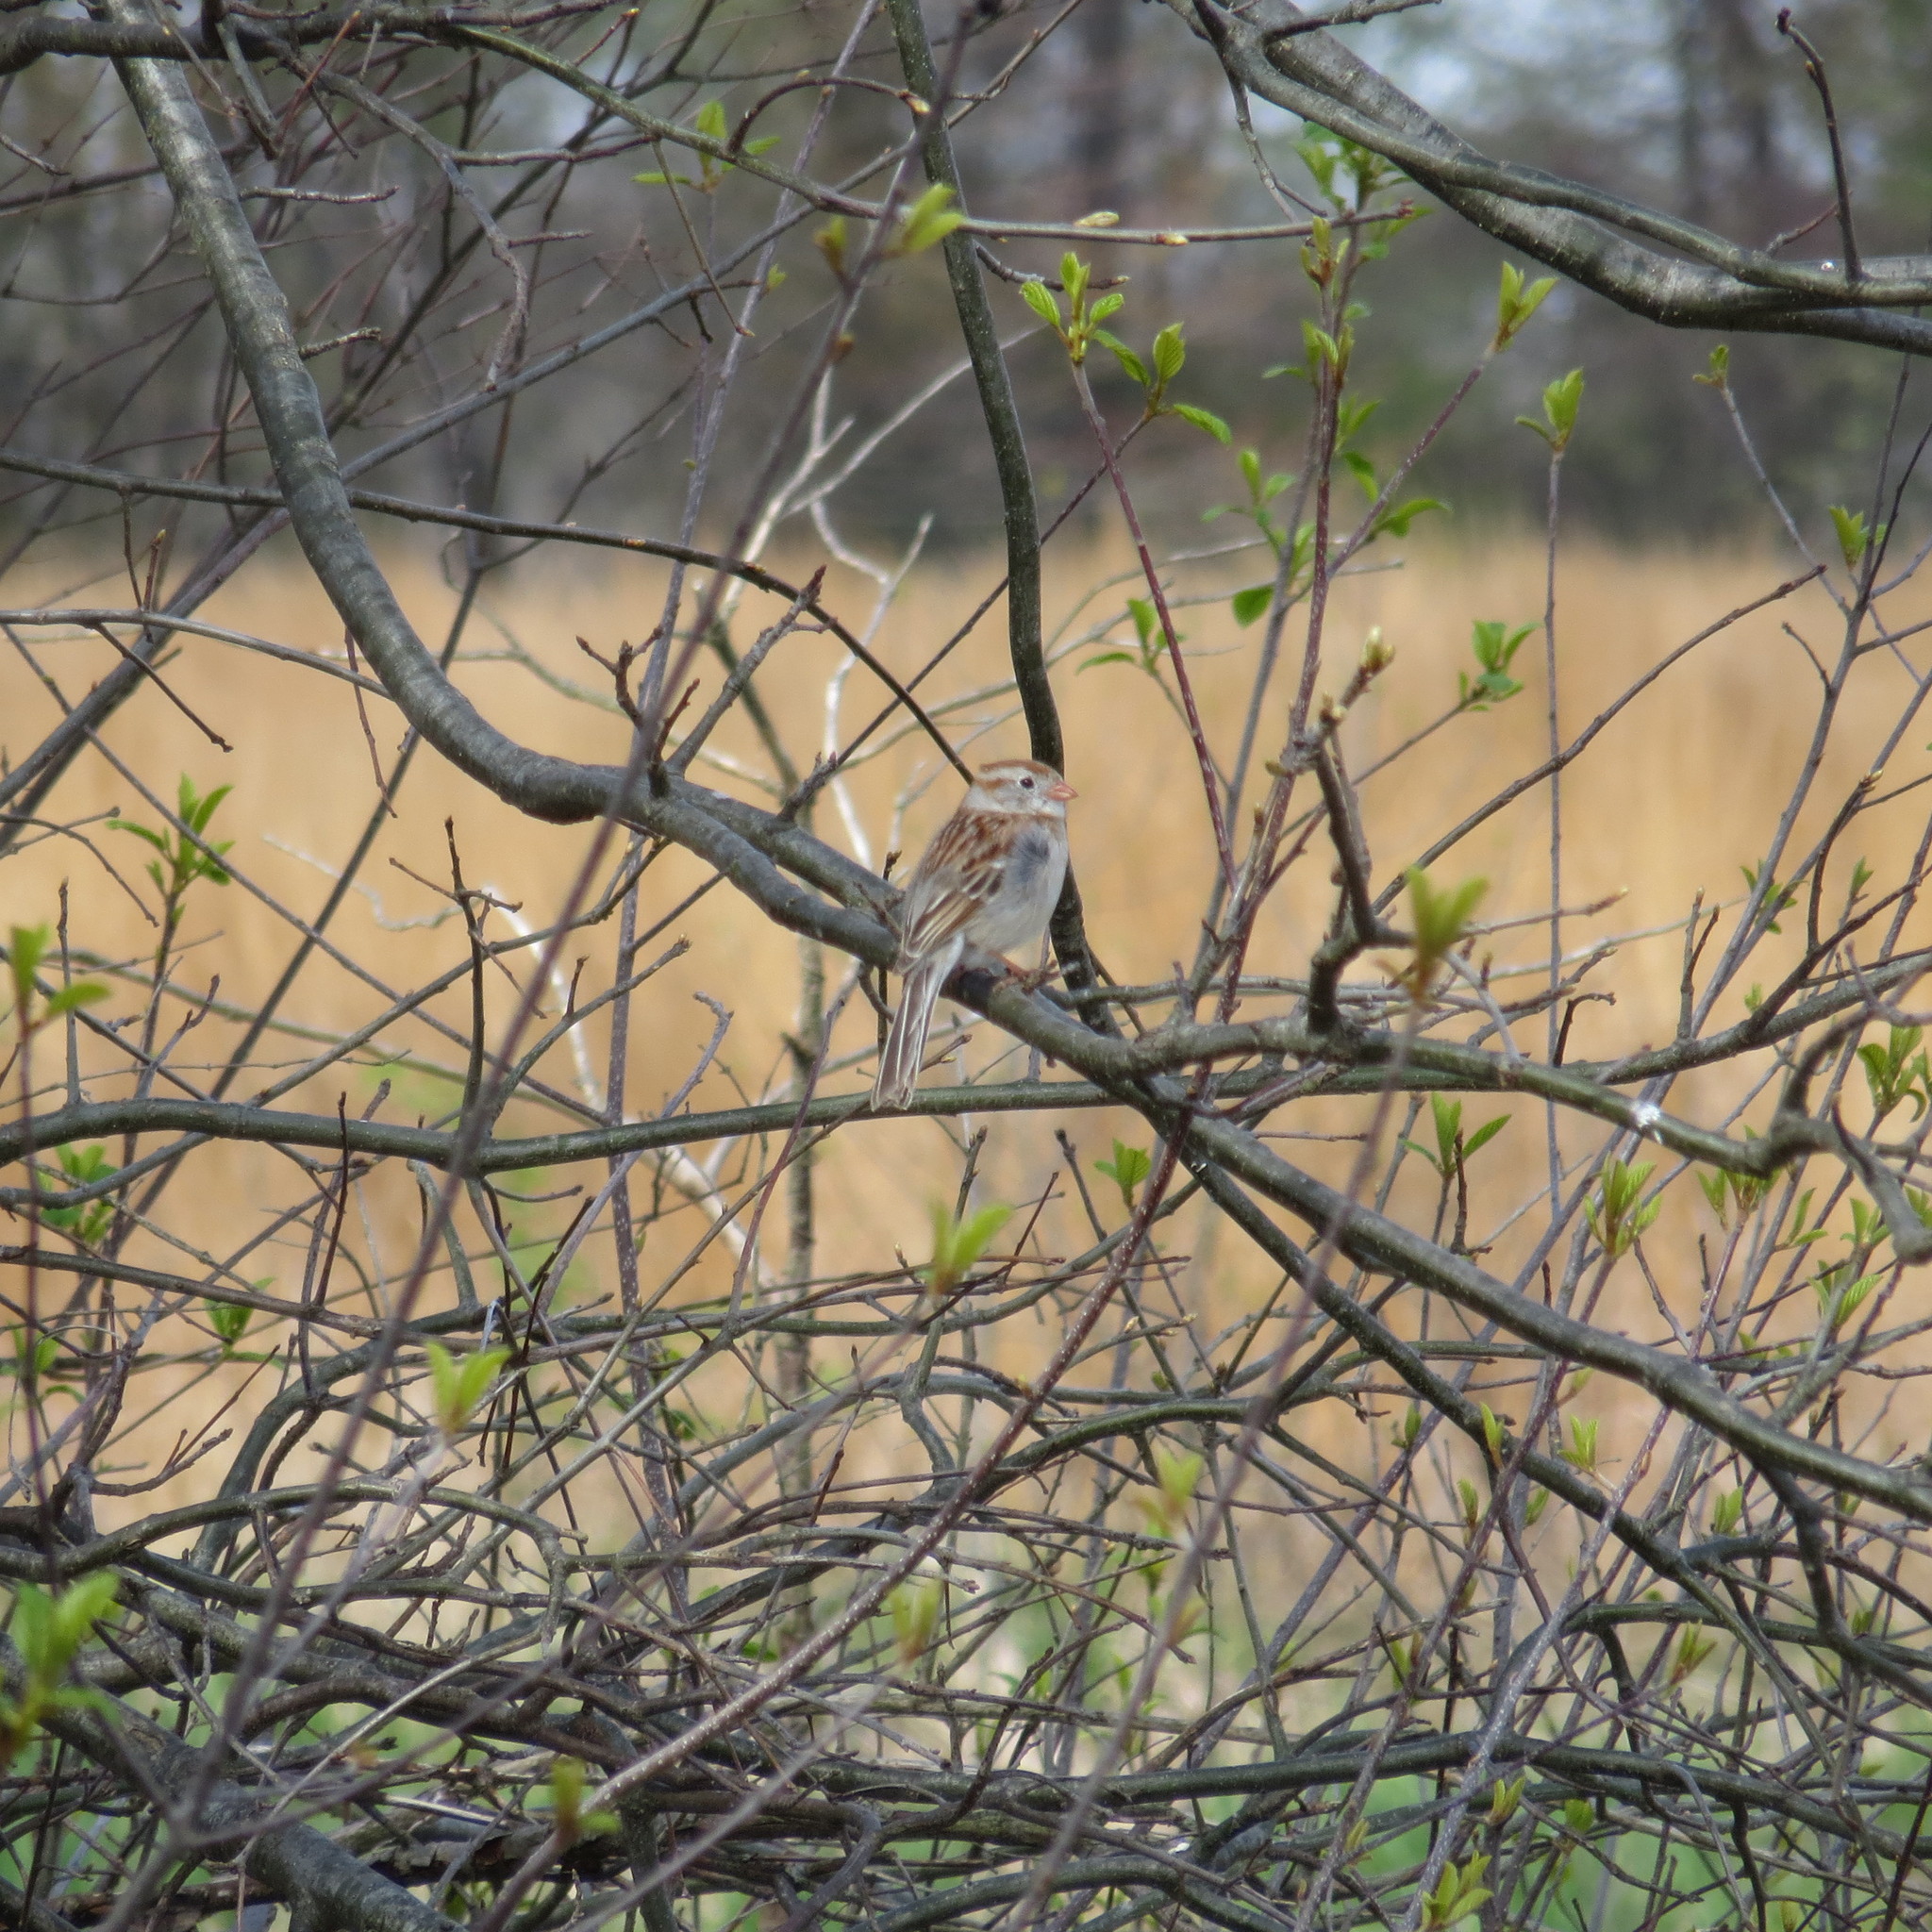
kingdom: Animalia
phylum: Chordata
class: Aves
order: Passeriformes
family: Passerellidae
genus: Spizella
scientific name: Spizella pusilla
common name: Field sparrow
